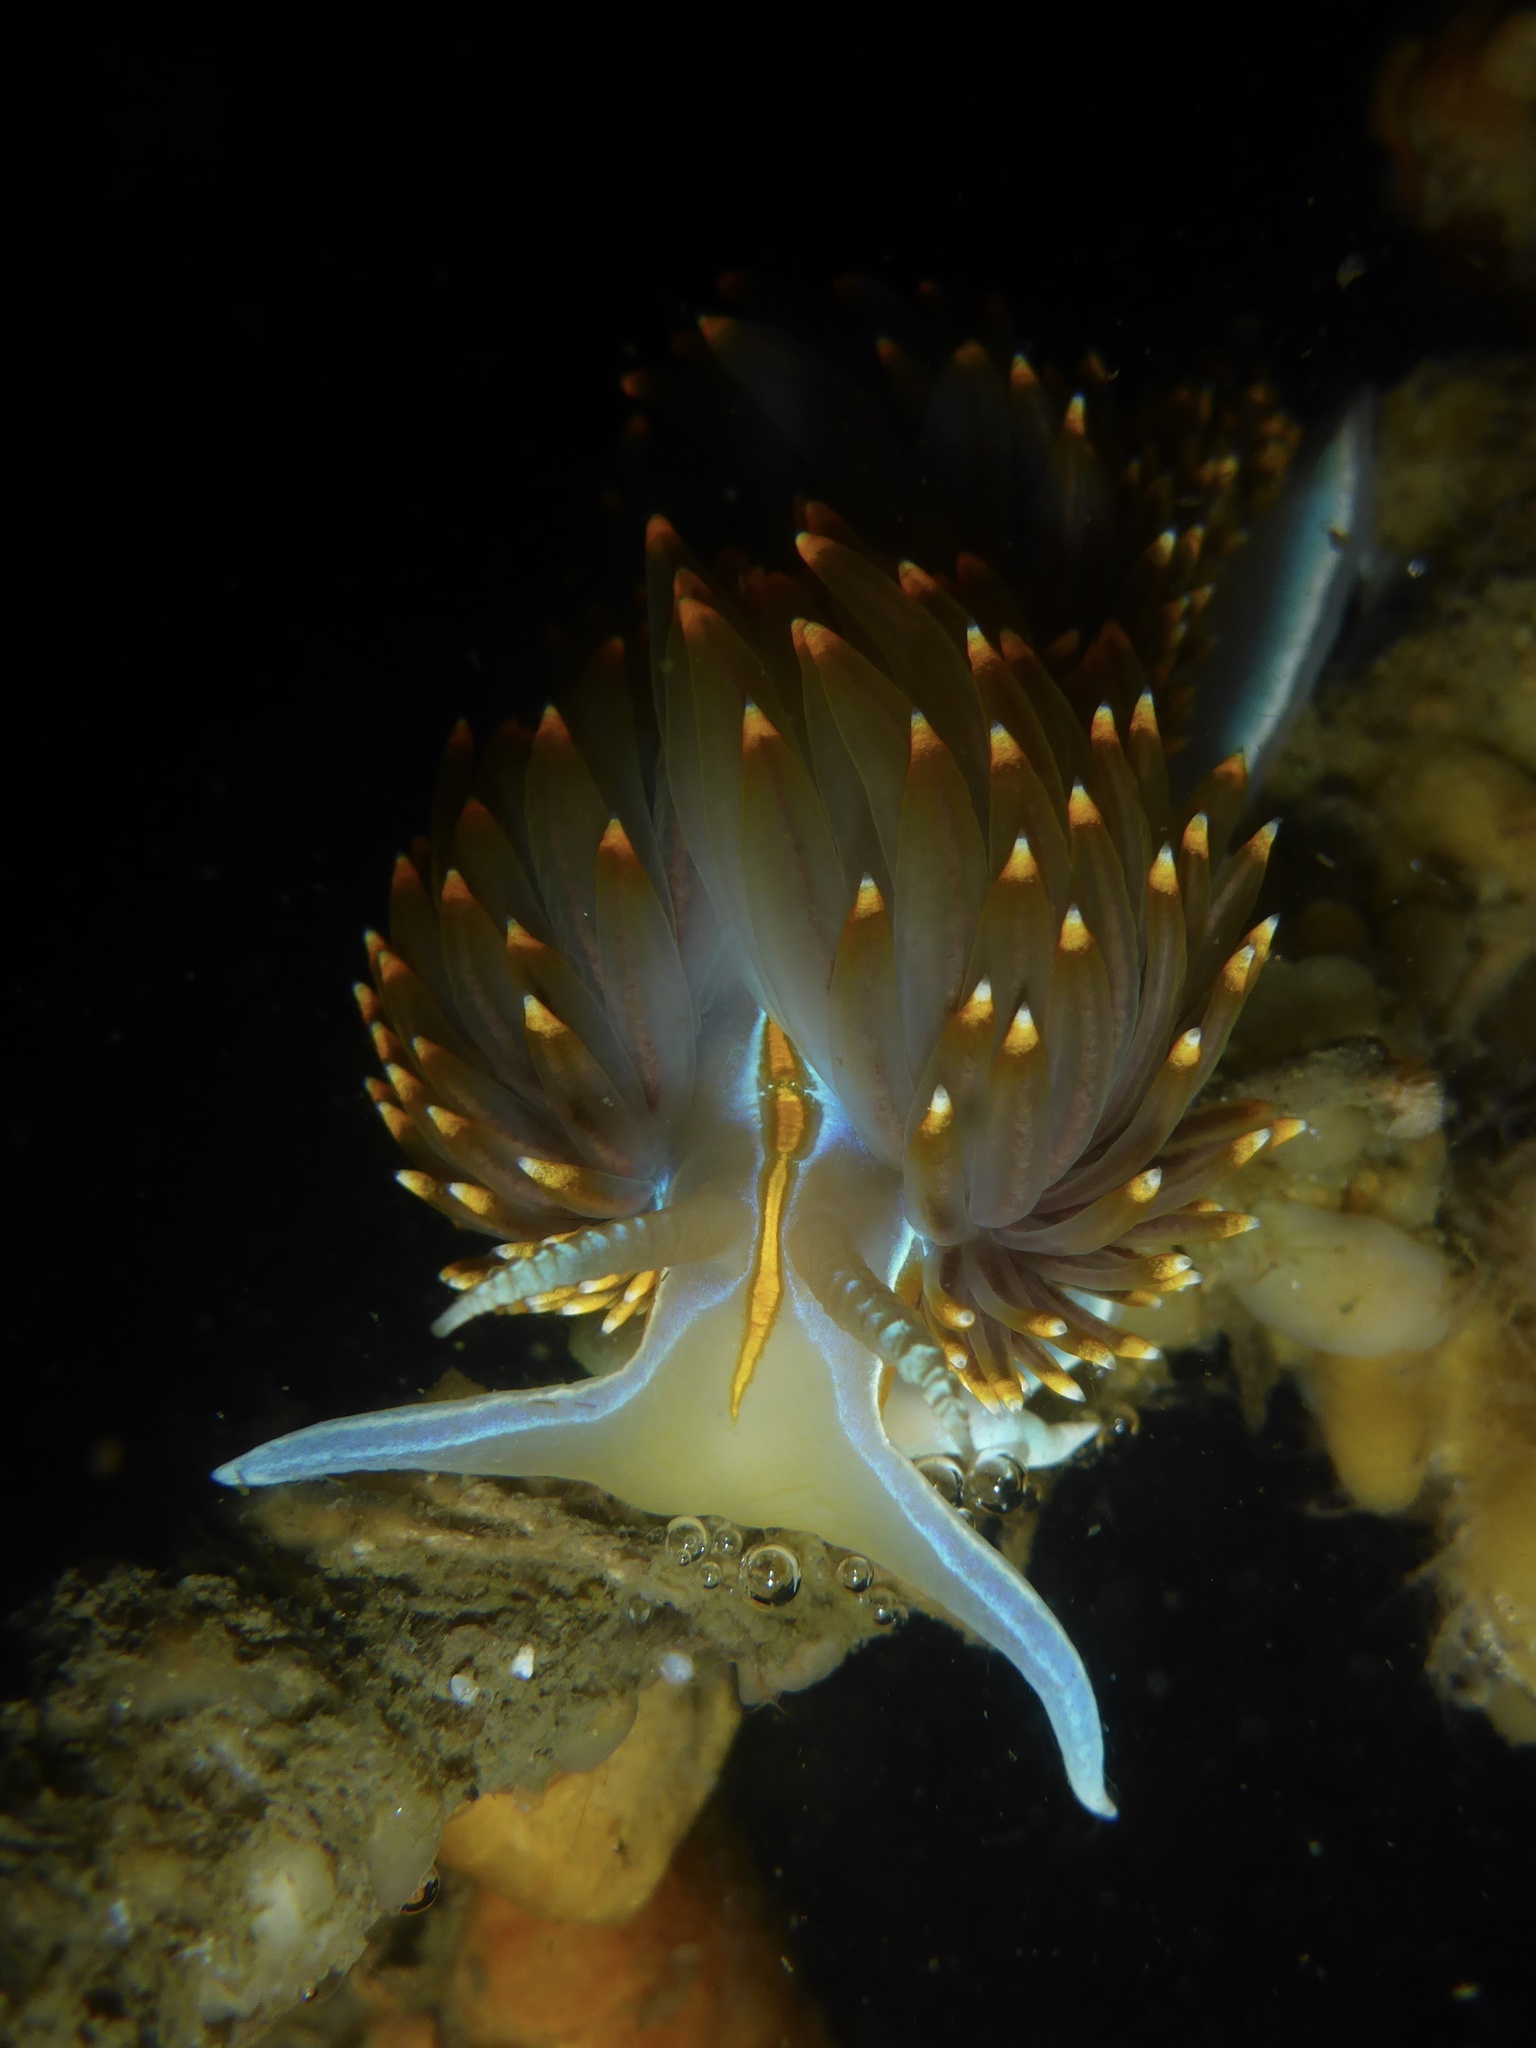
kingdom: Animalia
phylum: Mollusca
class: Gastropoda
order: Nudibranchia
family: Myrrhinidae
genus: Hermissenda
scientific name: Hermissenda opalescens
